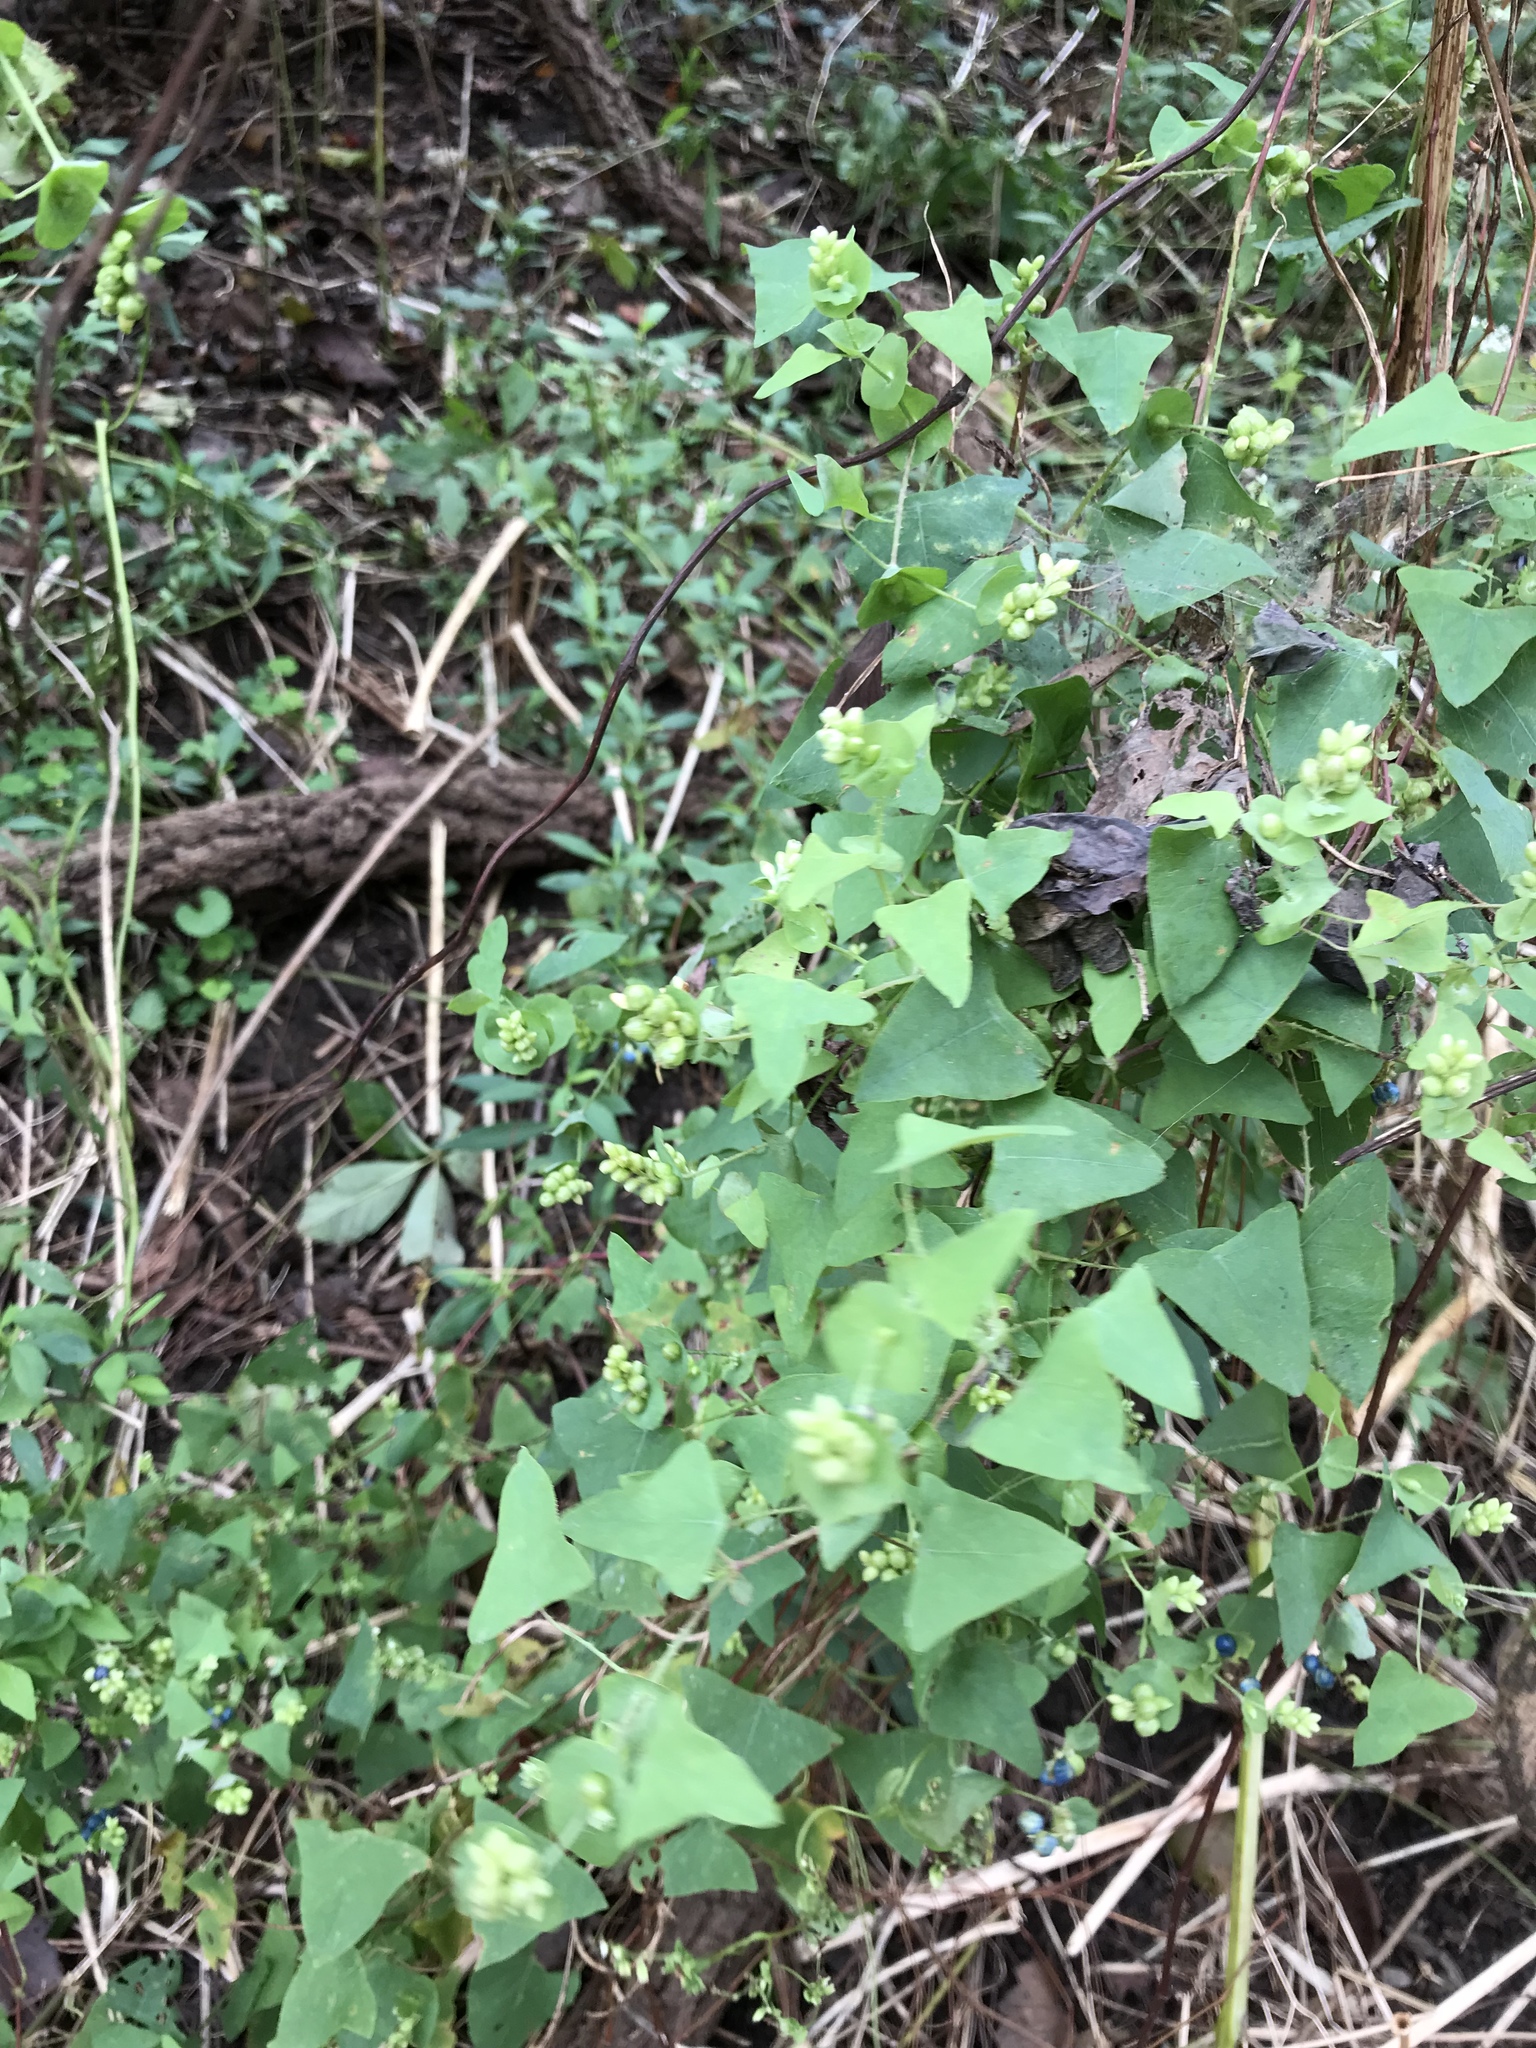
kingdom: Plantae
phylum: Tracheophyta
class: Magnoliopsida
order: Caryophyllales
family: Polygonaceae
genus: Persicaria
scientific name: Persicaria perfoliata
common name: Asiatic tearthumb
